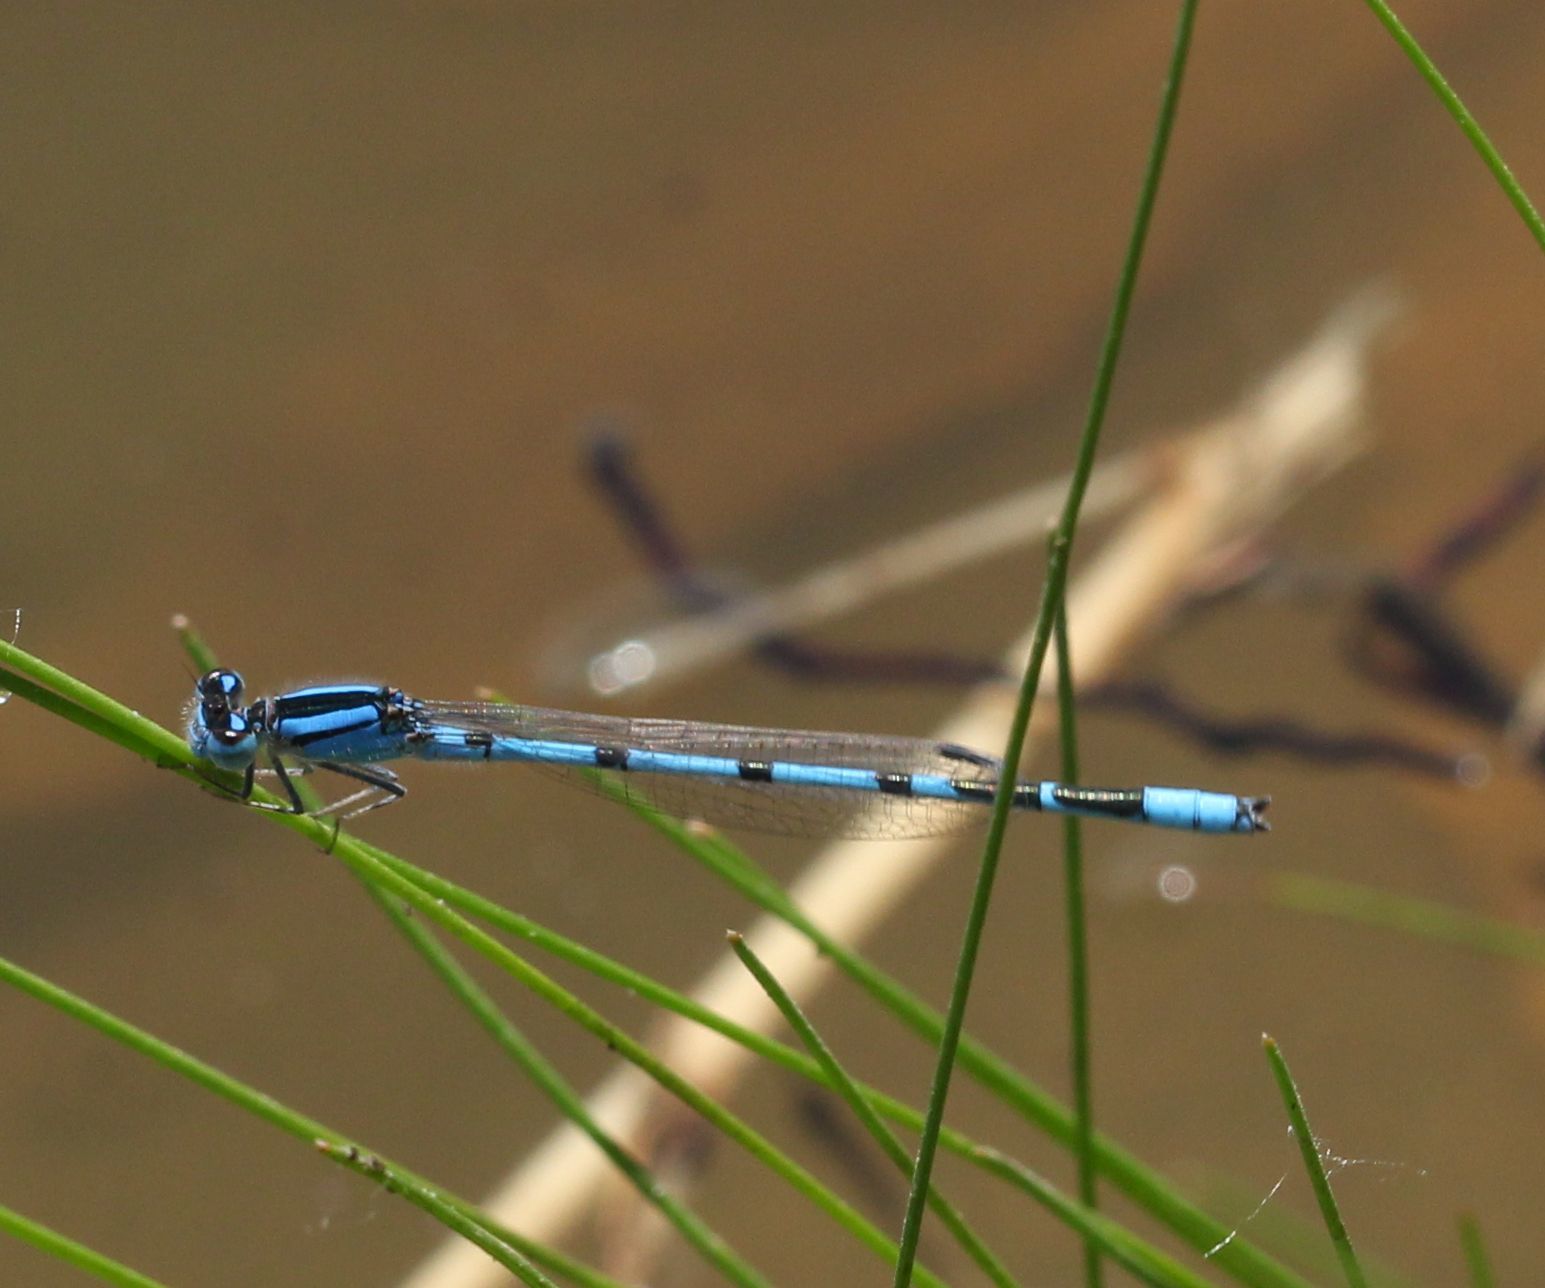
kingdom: Animalia
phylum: Arthropoda
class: Insecta
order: Odonata
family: Coenagrionidae
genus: Enallagma
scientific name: Enallagma civile
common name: Damselfly
